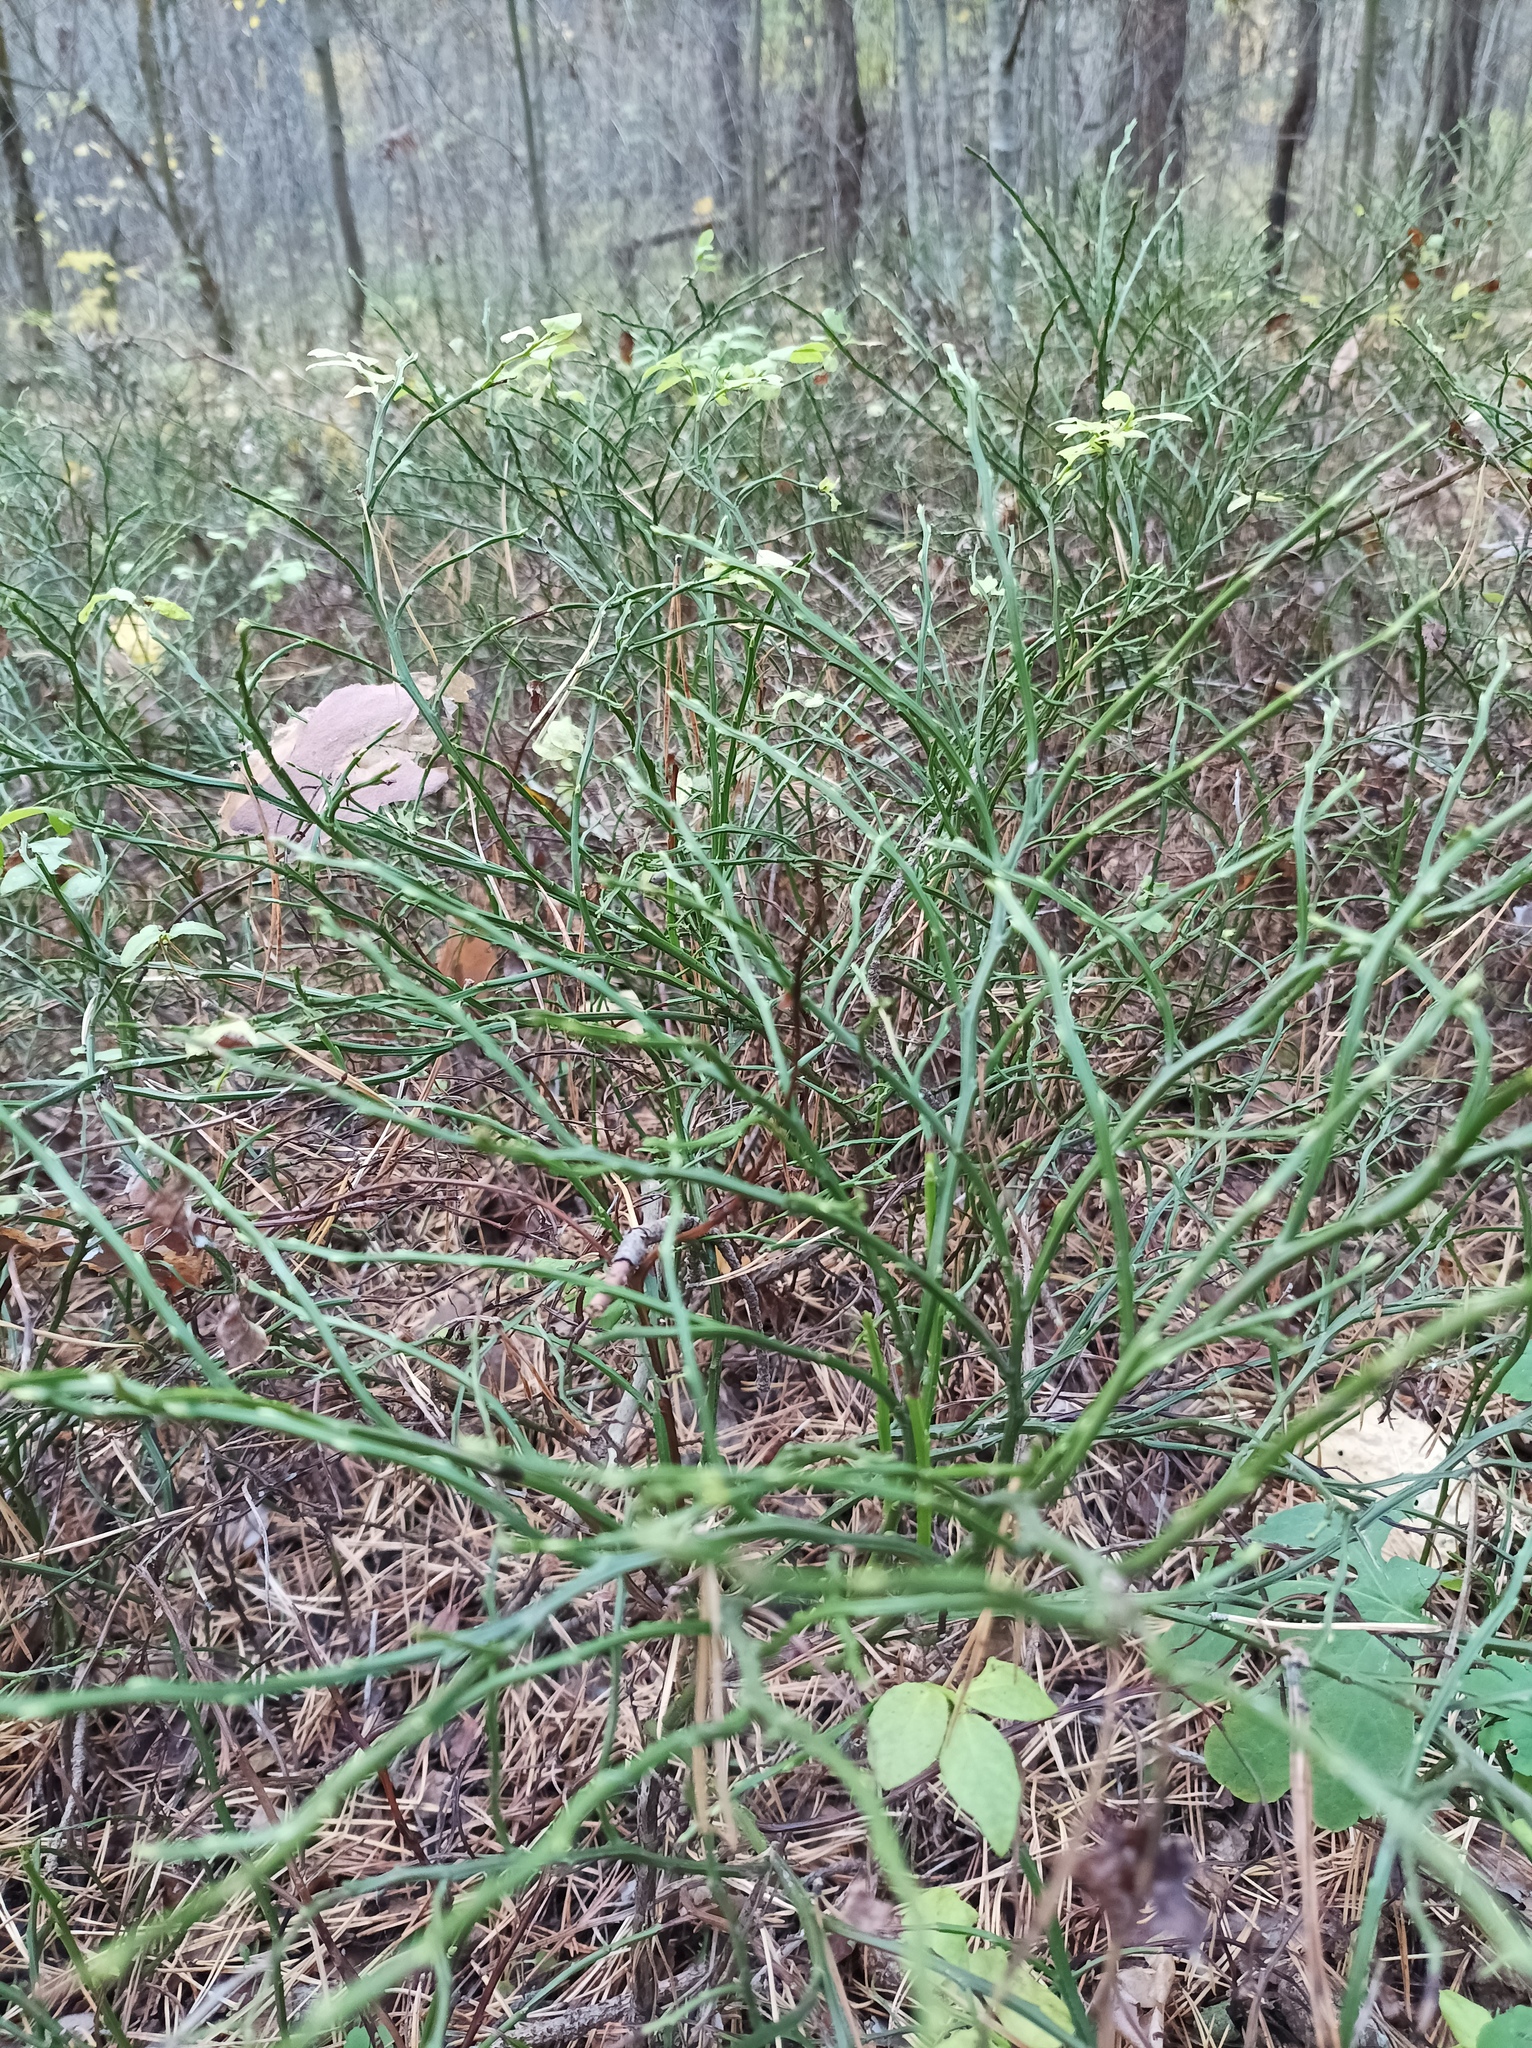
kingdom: Plantae
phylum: Tracheophyta
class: Magnoliopsida
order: Ericales
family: Ericaceae
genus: Vaccinium
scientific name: Vaccinium myrtillus
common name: Bilberry
